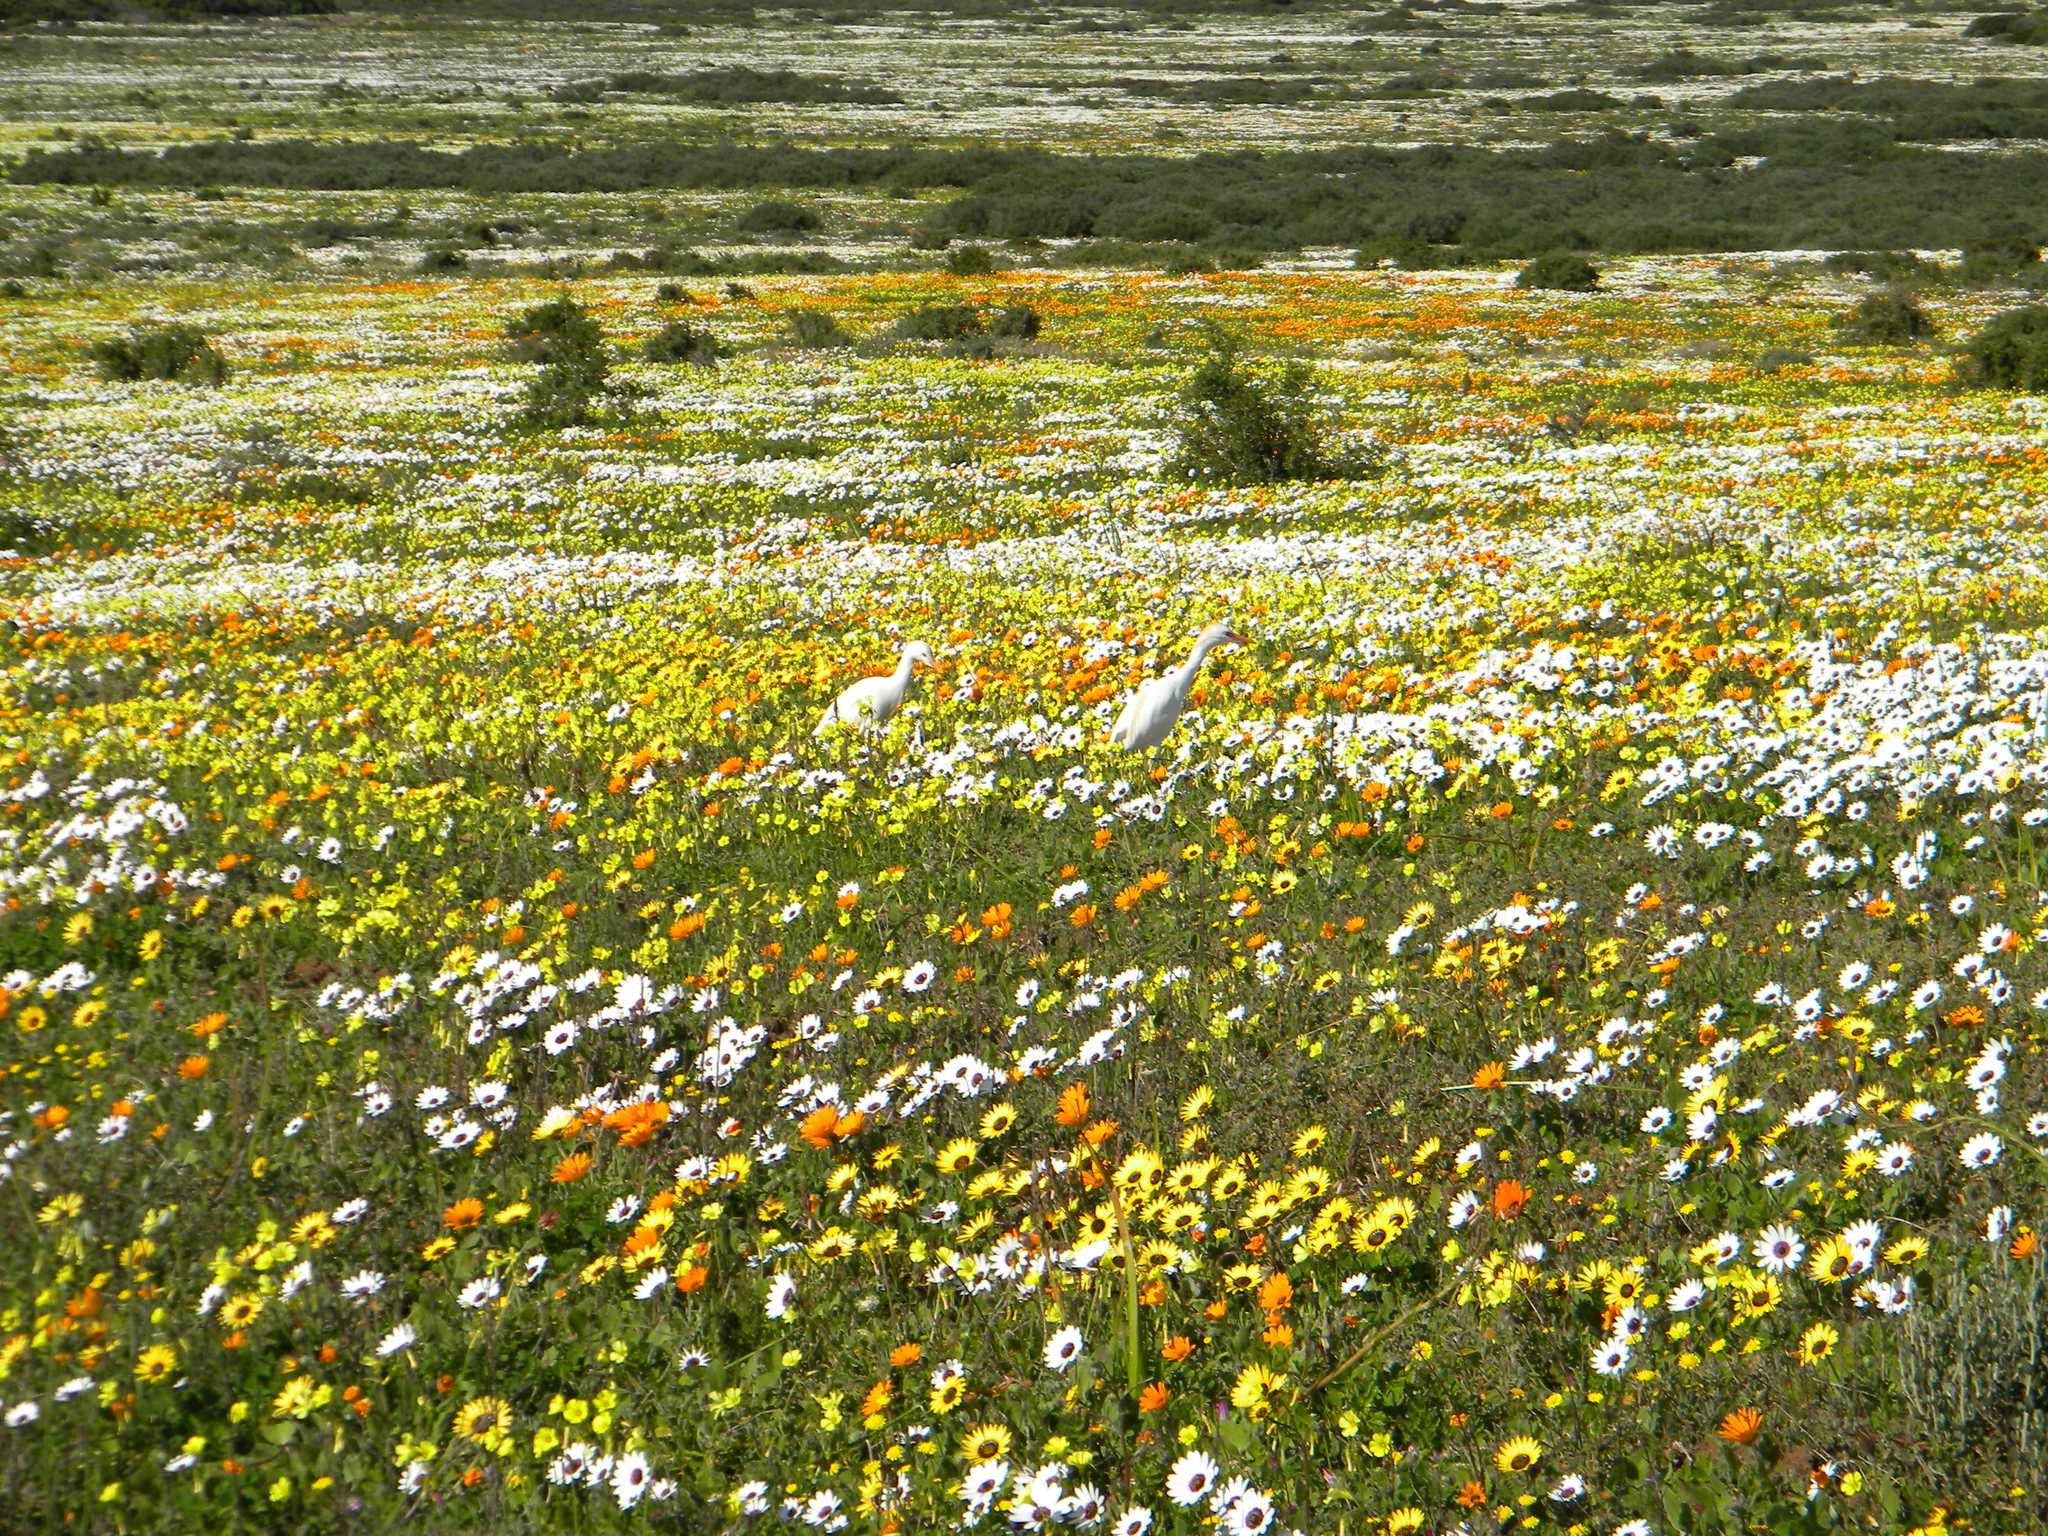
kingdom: Animalia
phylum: Chordata
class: Aves
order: Pelecaniformes
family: Ardeidae
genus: Bubulcus
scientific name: Bubulcus ibis
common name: Cattle egret
